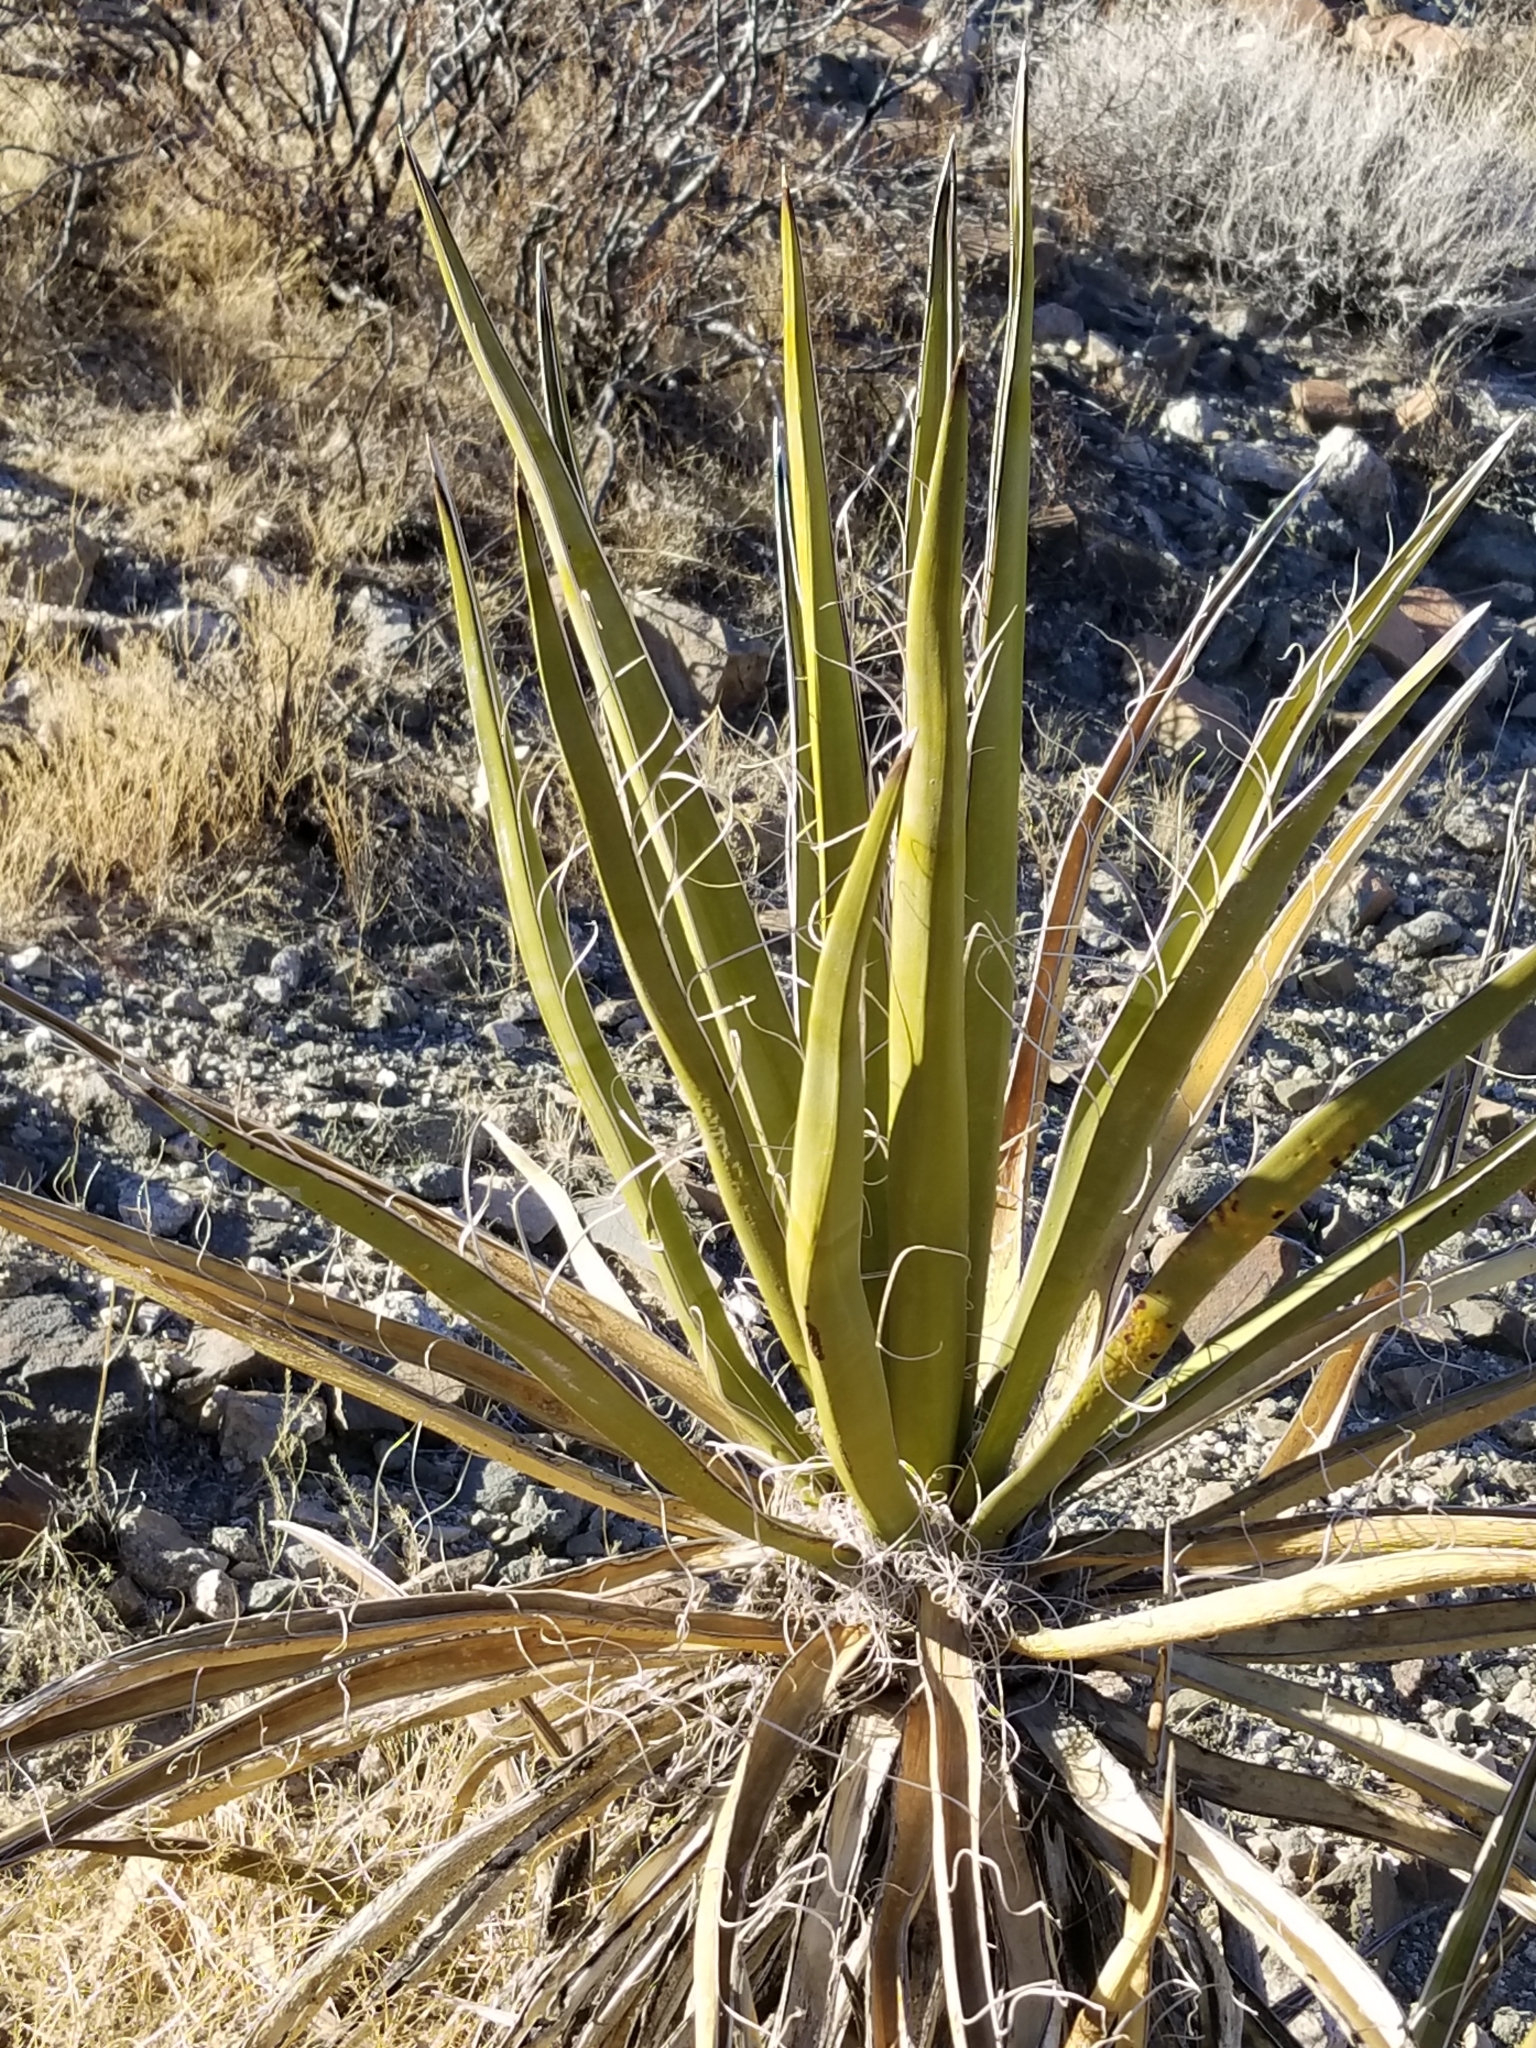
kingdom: Plantae
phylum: Tracheophyta
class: Liliopsida
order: Asparagales
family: Asparagaceae
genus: Yucca
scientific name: Yucca schidigera
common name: Mojave yucca
